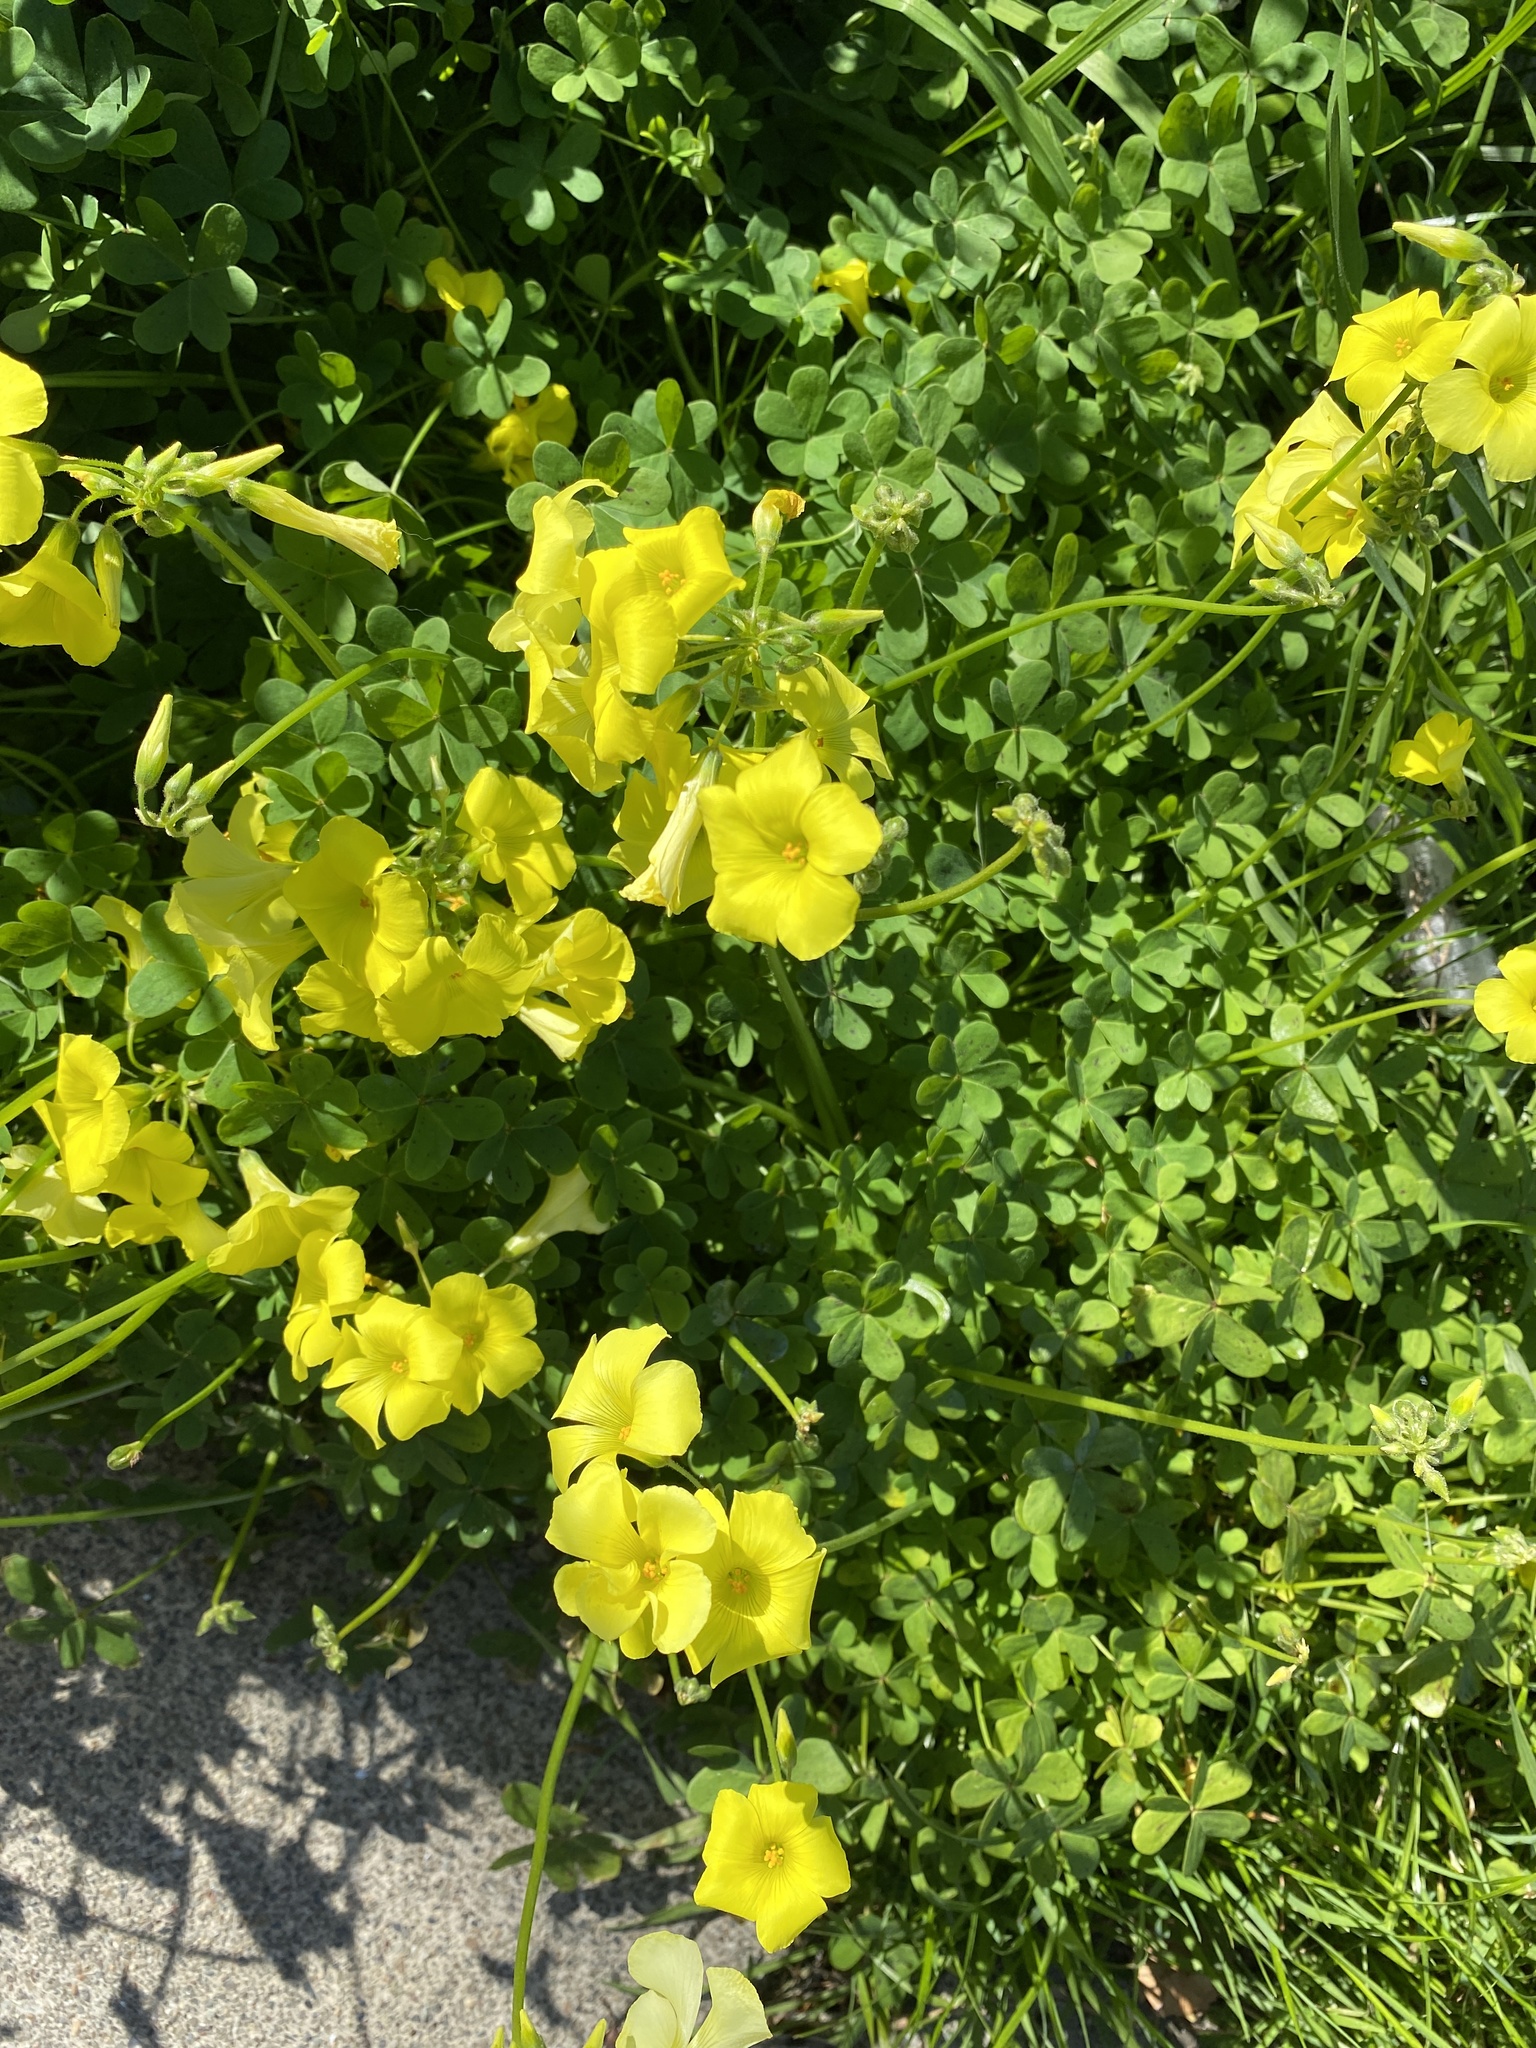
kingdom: Plantae
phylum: Tracheophyta
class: Magnoliopsida
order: Oxalidales
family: Oxalidaceae
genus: Oxalis
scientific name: Oxalis pes-caprae
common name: Bermuda-buttercup
